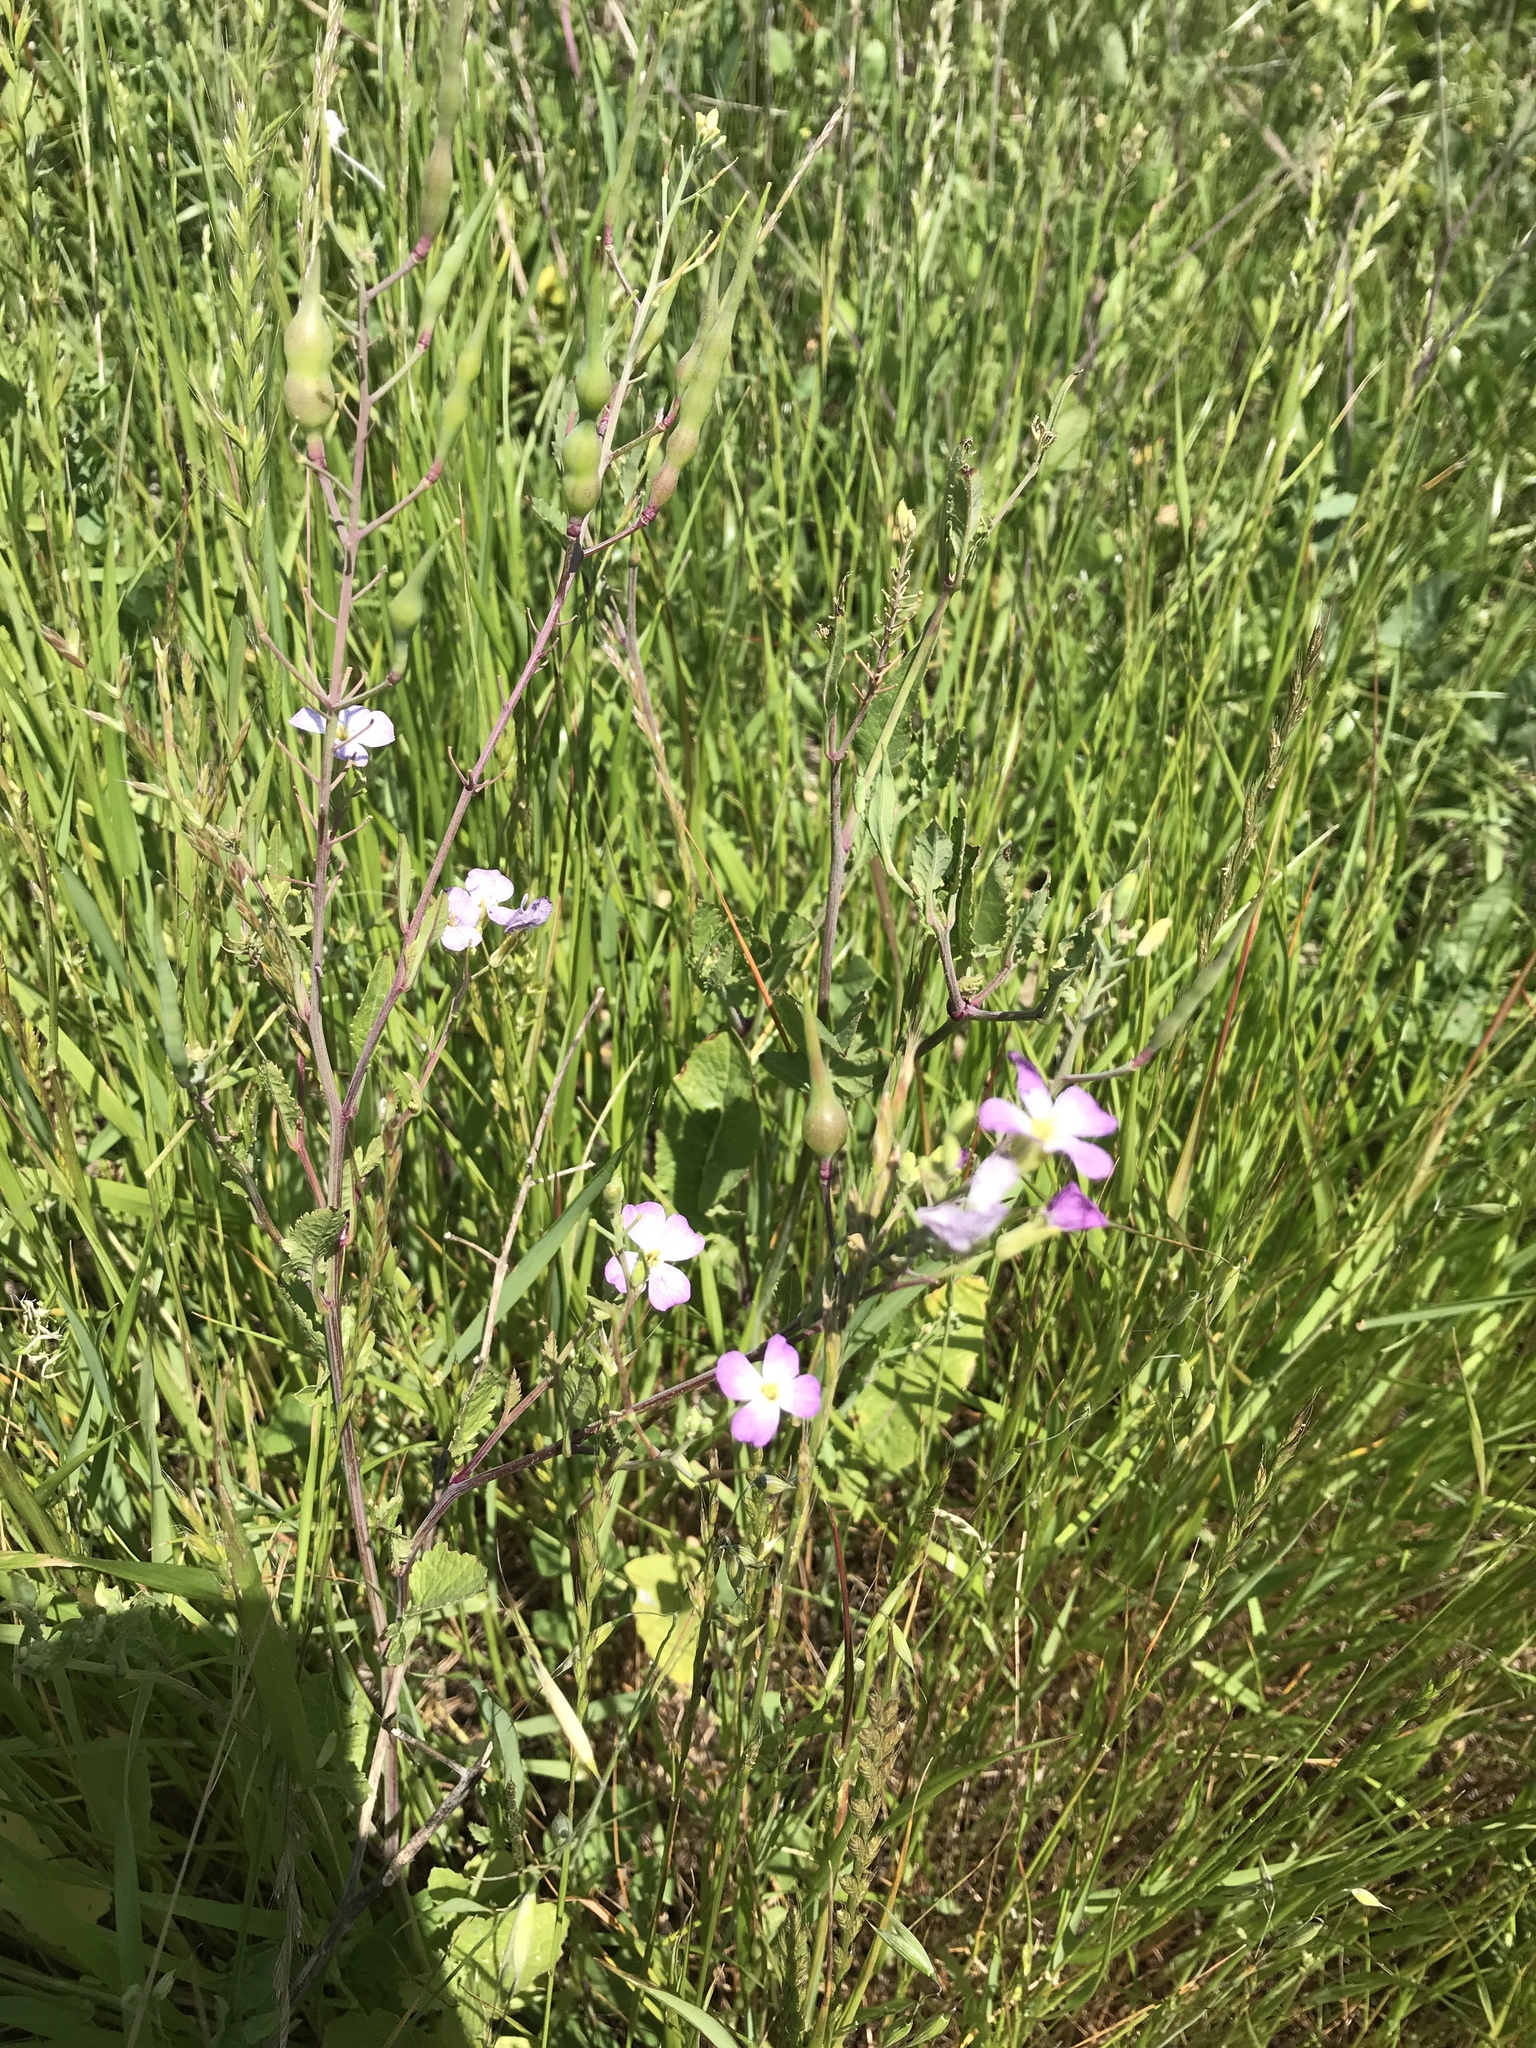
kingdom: Plantae
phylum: Tracheophyta
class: Magnoliopsida
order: Brassicales
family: Brassicaceae
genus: Raphanus
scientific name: Raphanus sativus
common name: Cultivated radish
